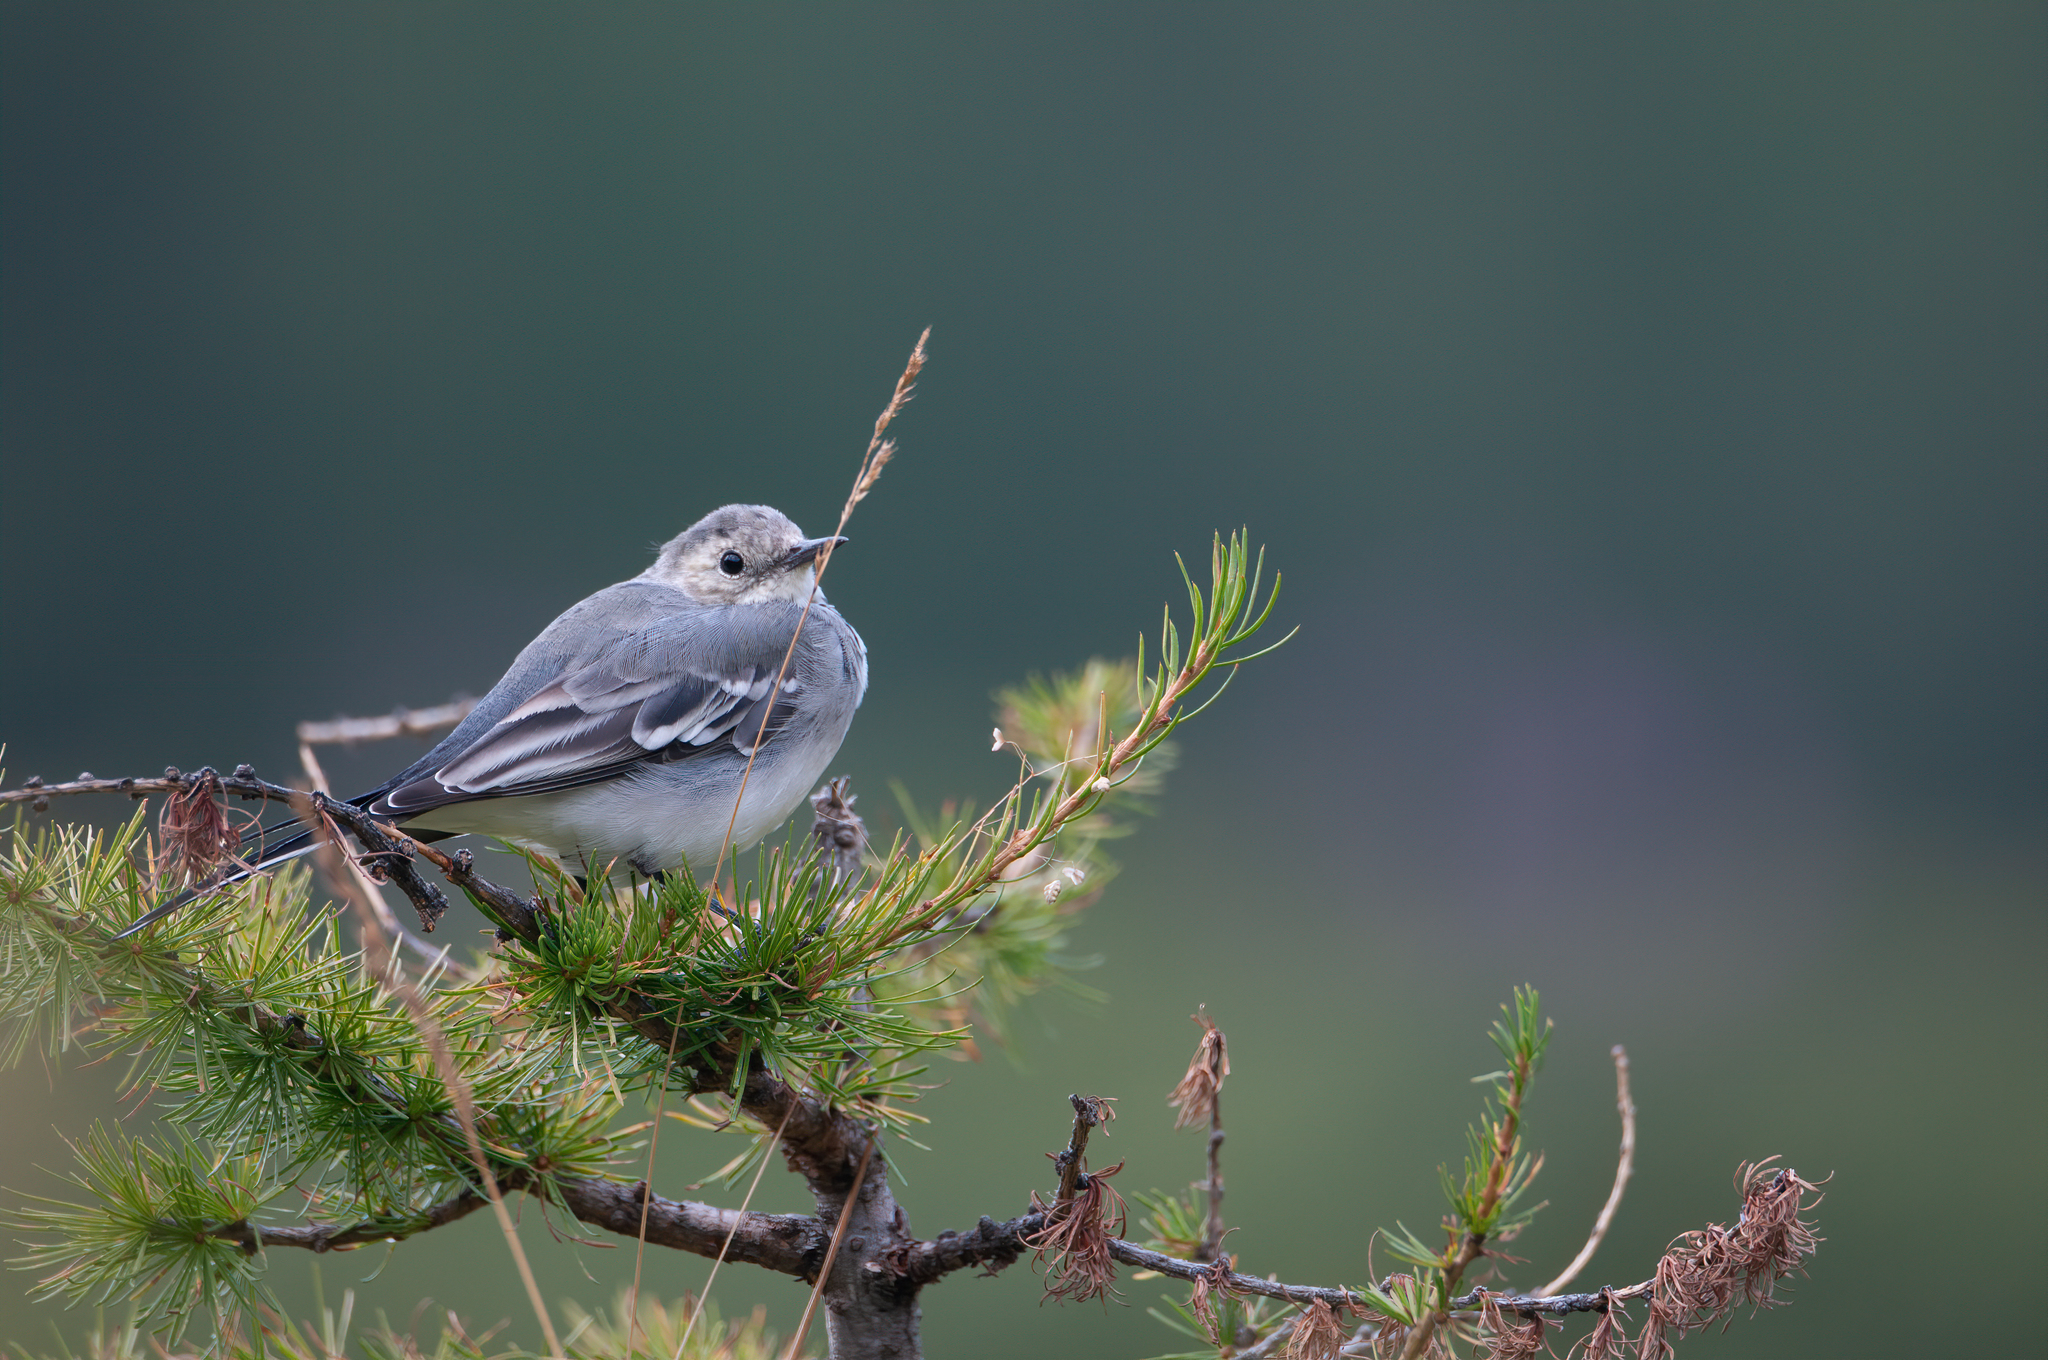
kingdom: Animalia
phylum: Chordata
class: Aves
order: Passeriformes
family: Motacillidae
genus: Motacilla
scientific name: Motacilla alba
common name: White wagtail
